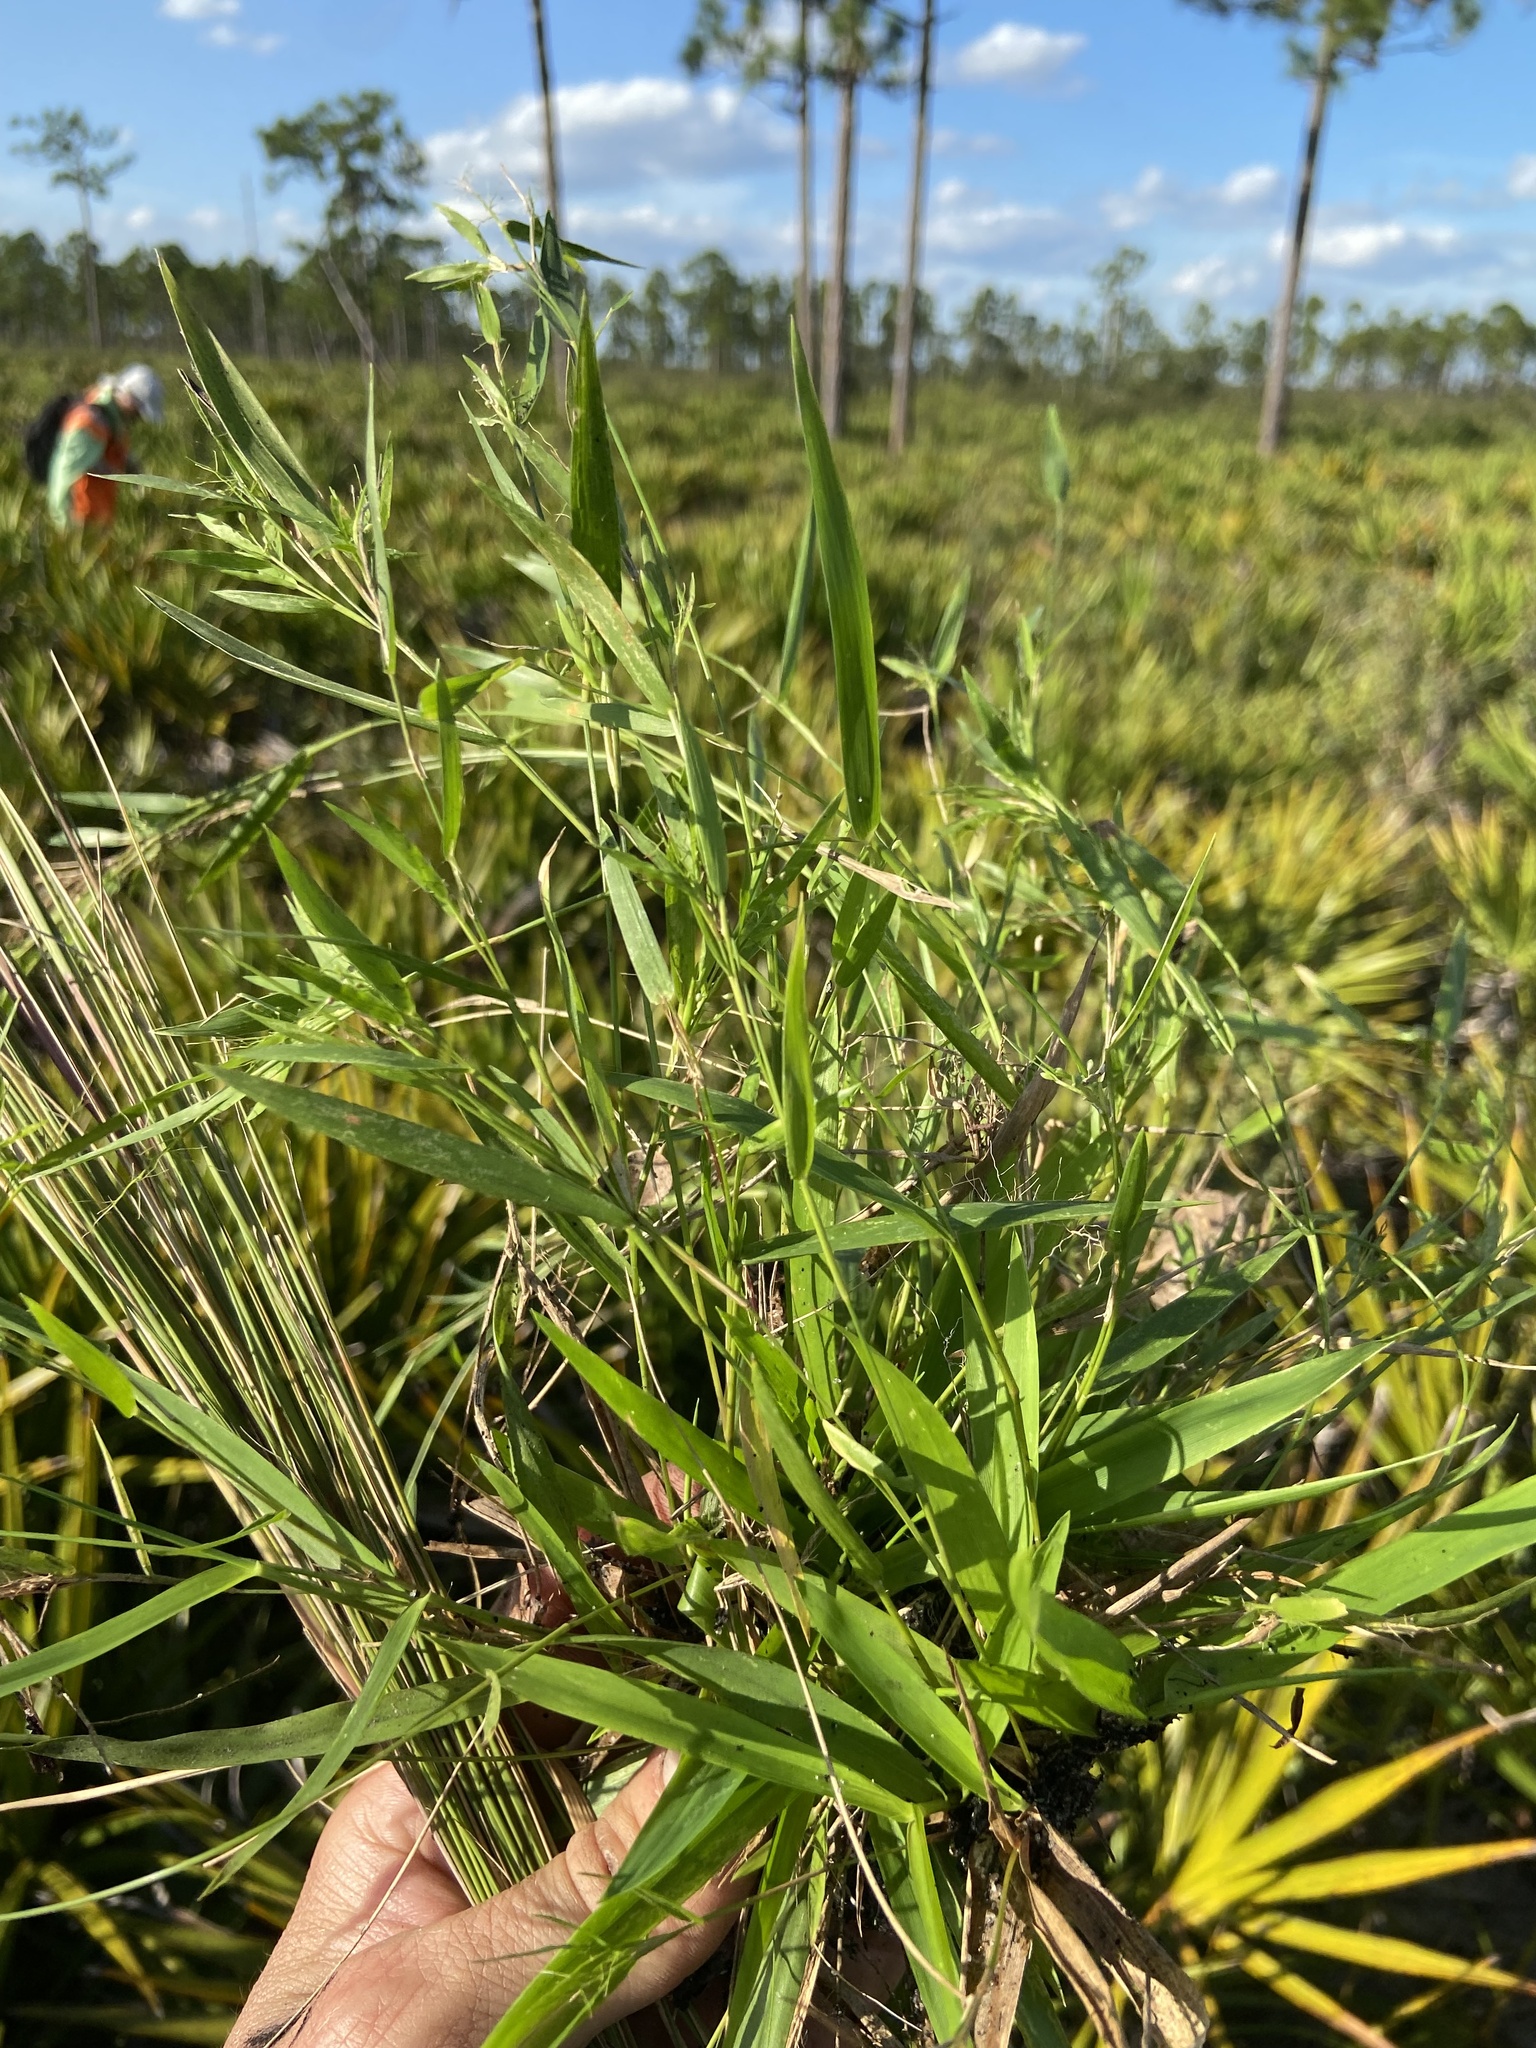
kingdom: Plantae
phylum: Tracheophyta
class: Liliopsida
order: Poales
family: Poaceae
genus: Dichanthelium
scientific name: Dichanthelium tenue
